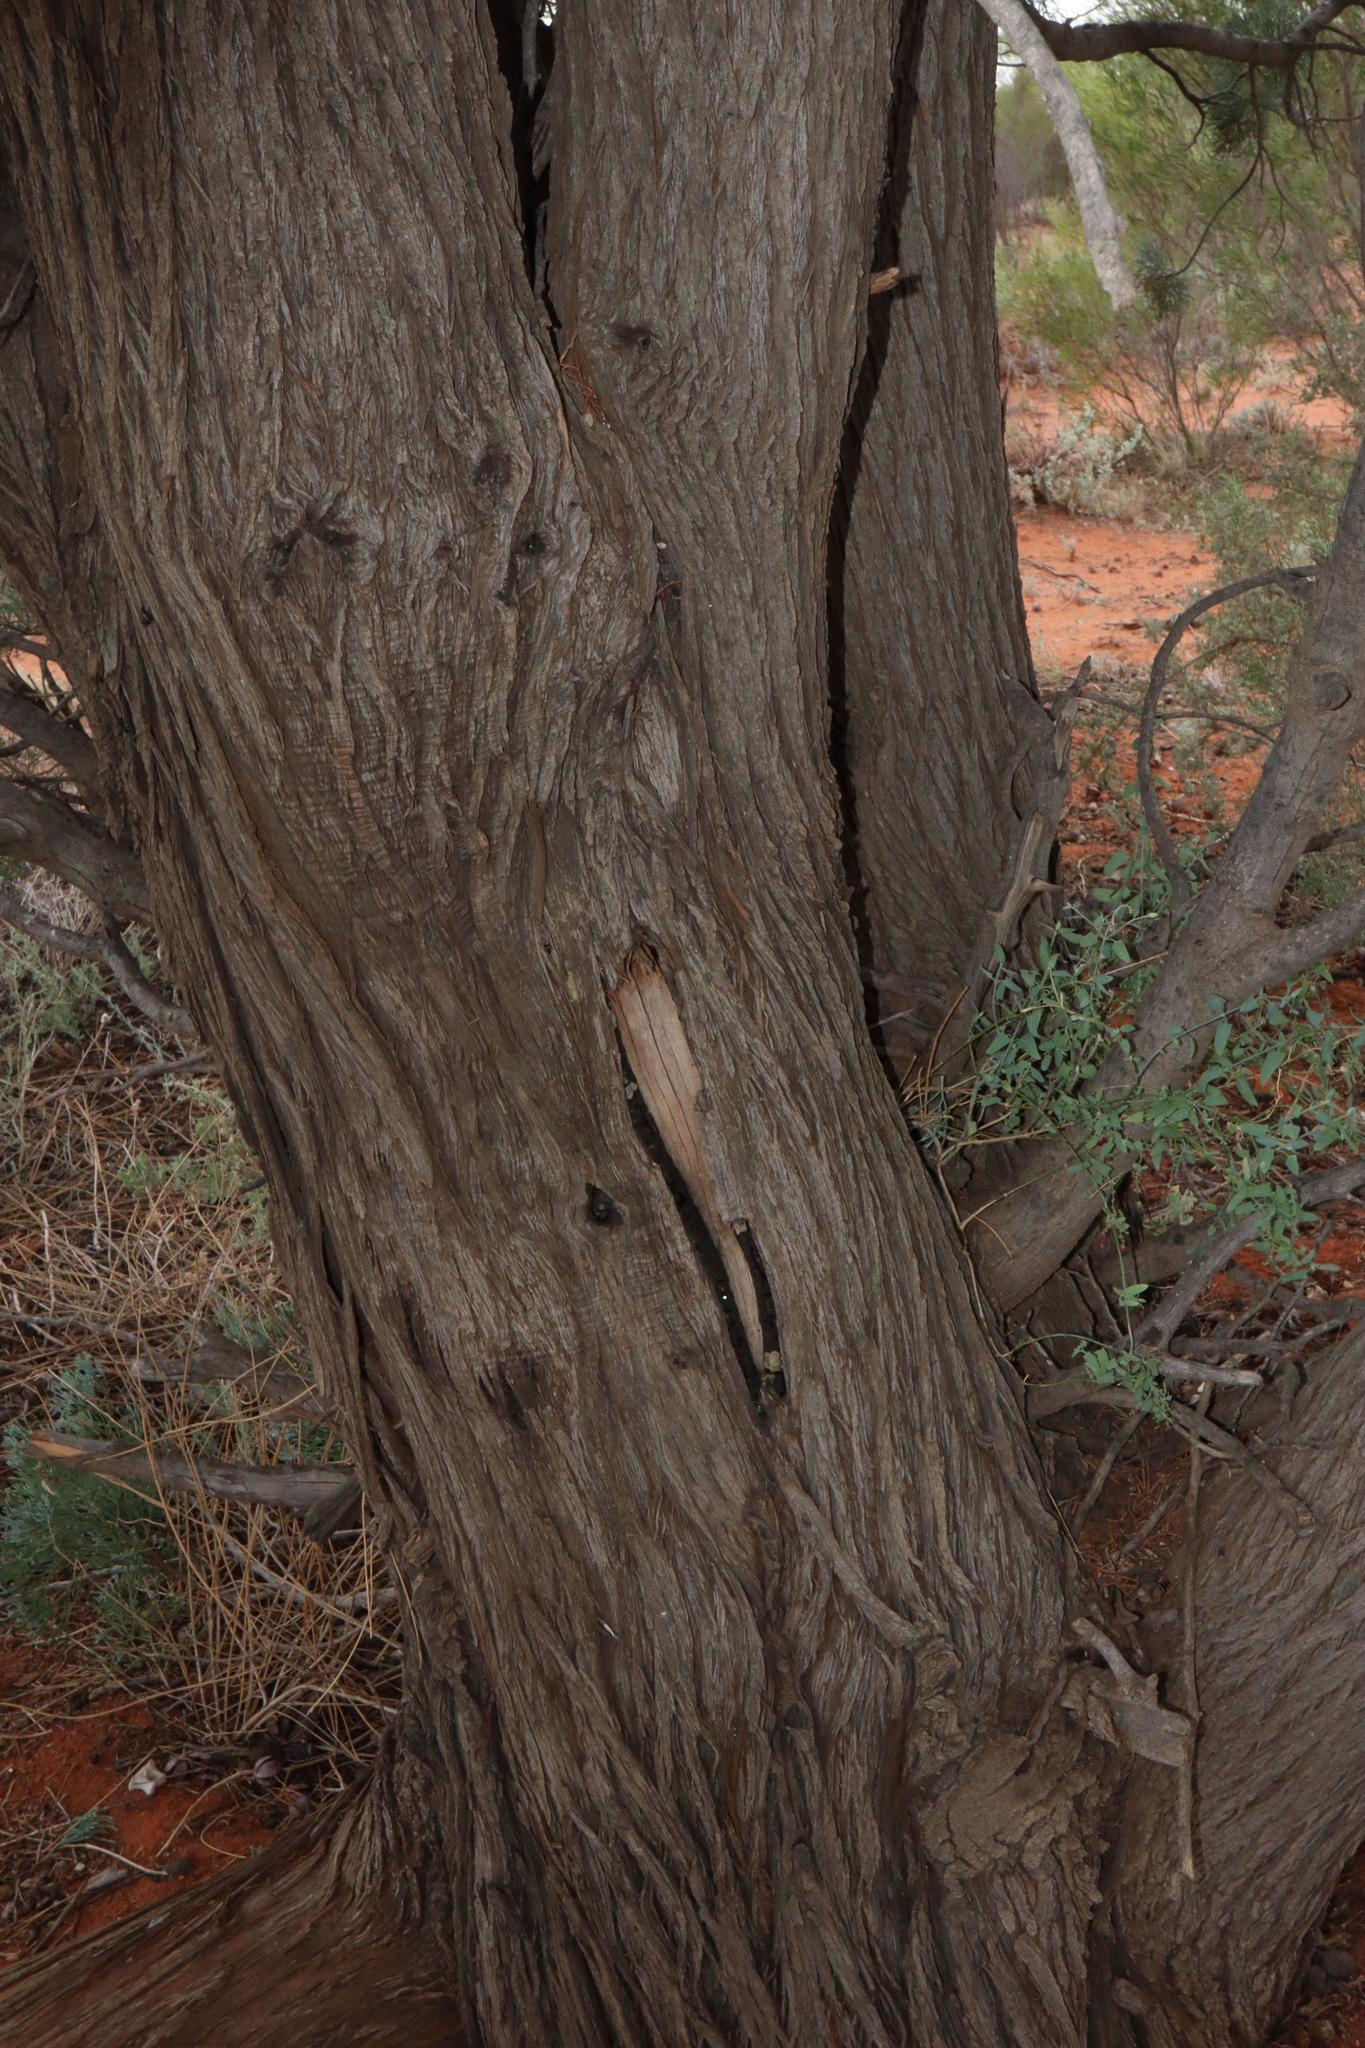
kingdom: Plantae
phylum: Tracheophyta
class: Pinopsida
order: Pinales
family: Cupressaceae
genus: Callitris
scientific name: Callitris columellaris
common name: White cypress-pine
